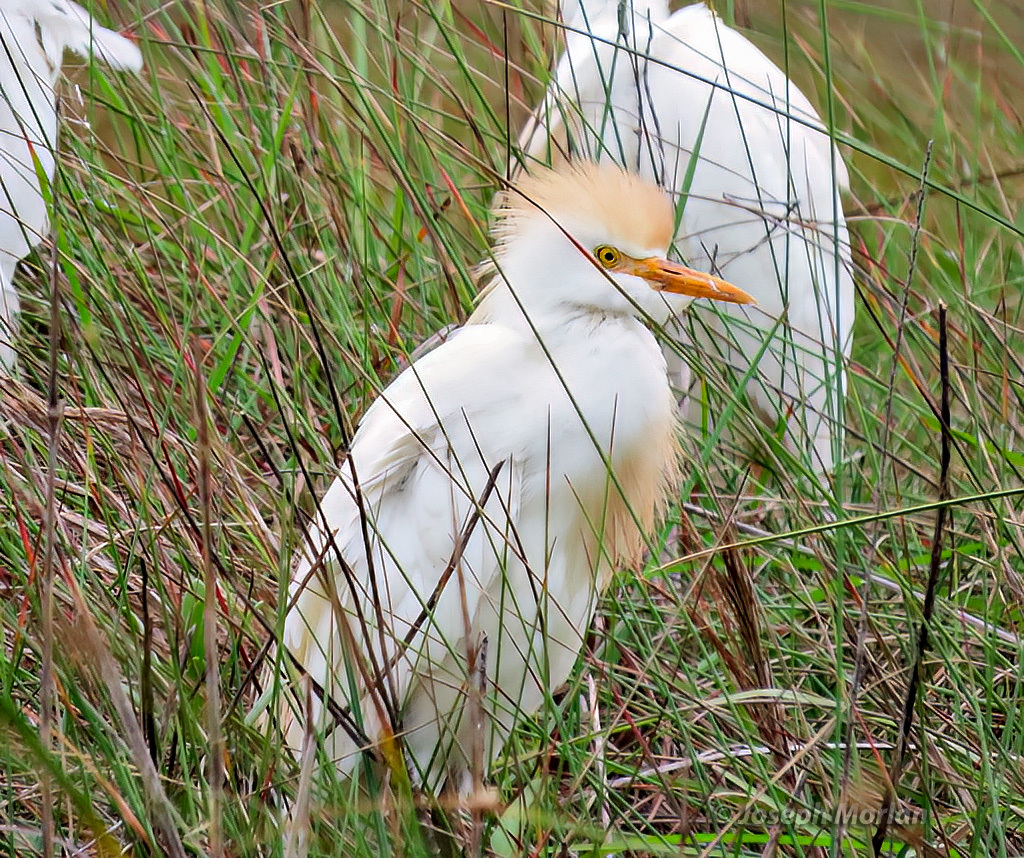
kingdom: Animalia
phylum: Chordata
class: Aves
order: Pelecaniformes
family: Ardeidae
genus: Bubulcus
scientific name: Bubulcus ibis
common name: Cattle egret
